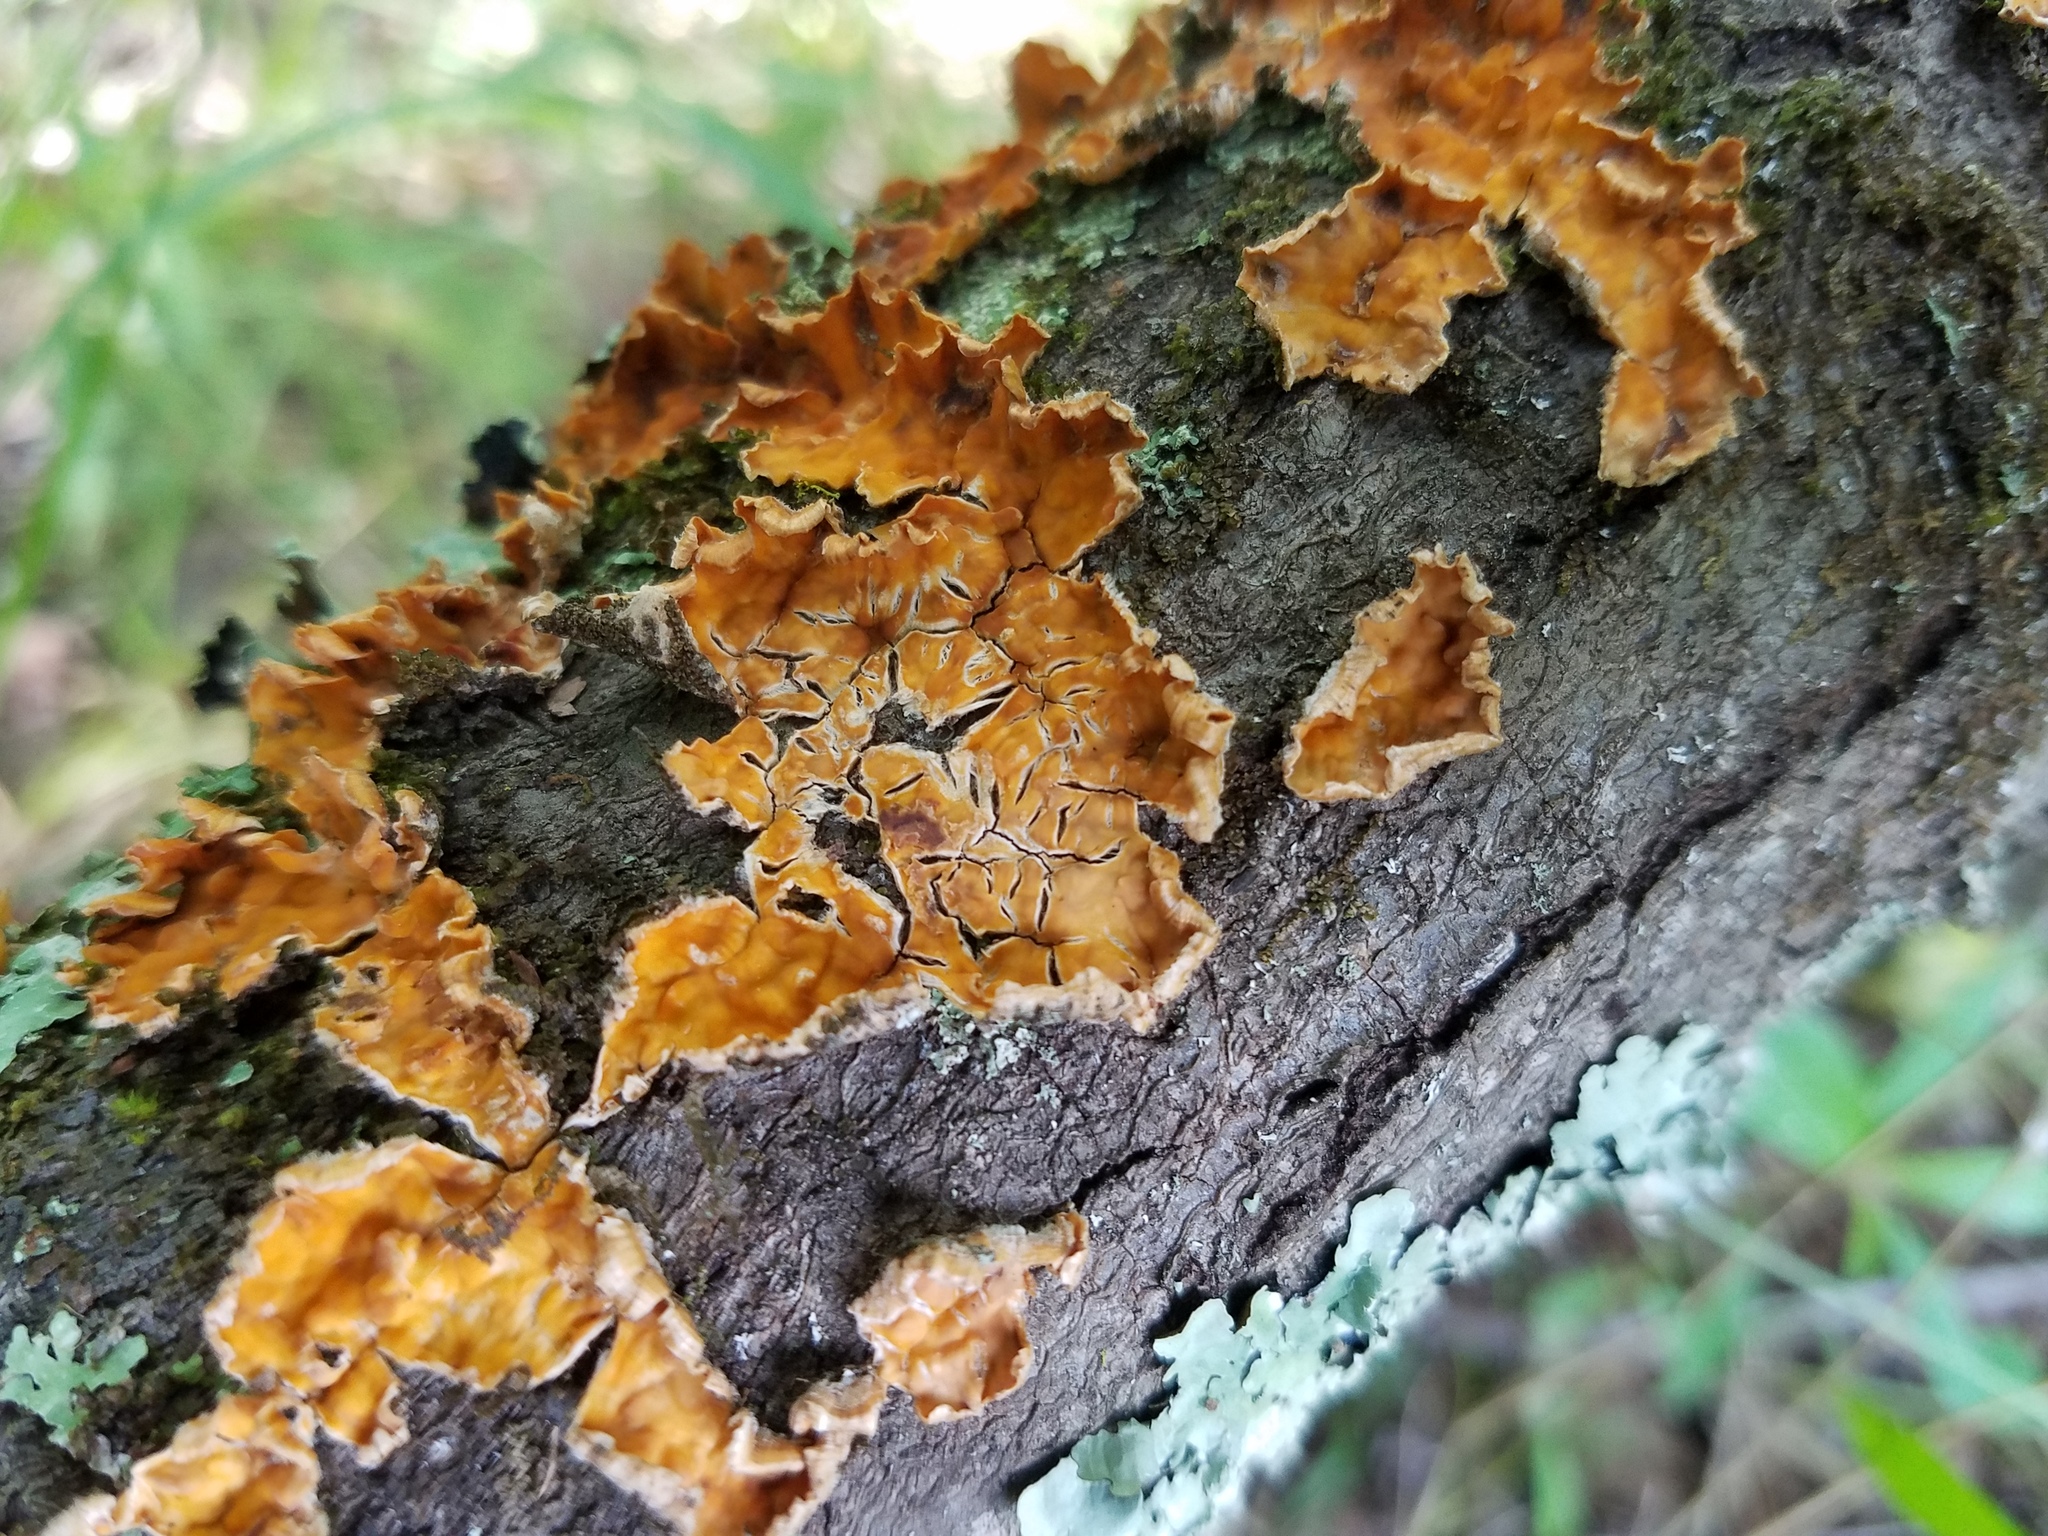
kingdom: Fungi
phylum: Basidiomycota
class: Agaricomycetes
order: Russulales
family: Stereaceae
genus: Stereum
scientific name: Stereum complicatum
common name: Crowded parchment
